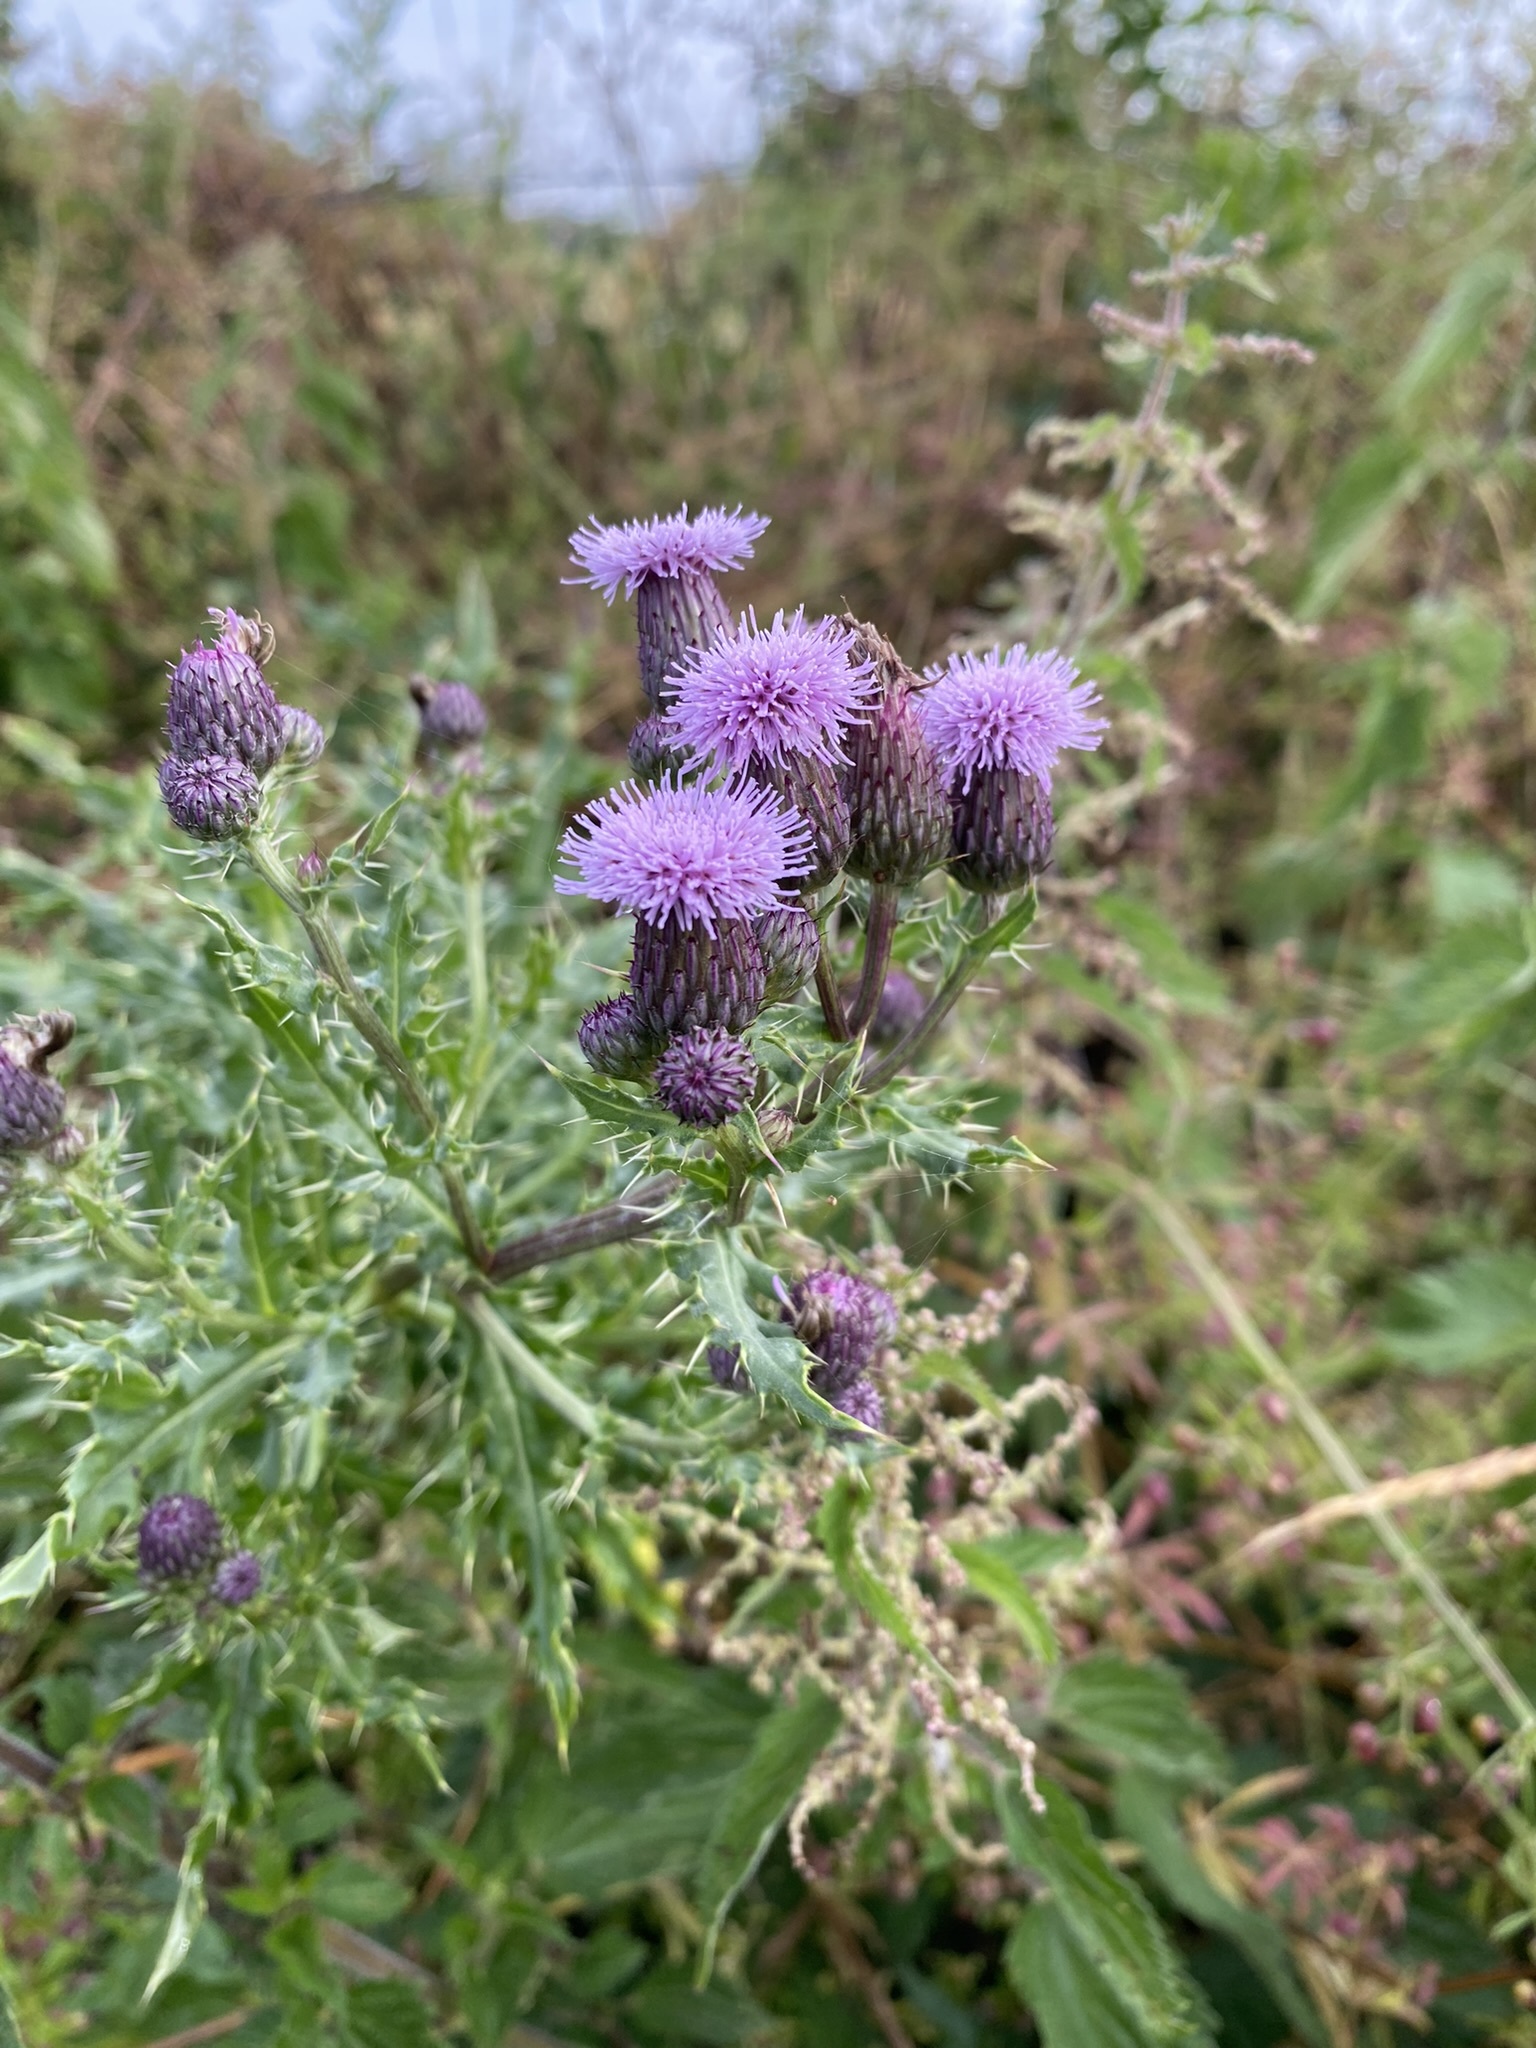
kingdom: Plantae
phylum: Tracheophyta
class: Magnoliopsida
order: Asterales
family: Asteraceae
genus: Cirsium
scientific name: Cirsium arvense
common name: Creeping thistle
